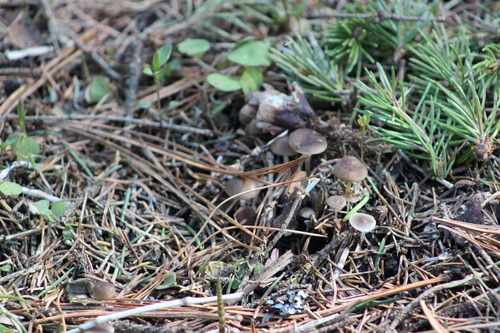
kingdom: Fungi
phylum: Basidiomycota
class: Agaricomycetes
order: Agaricales
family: Physalacriaceae
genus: Strobilurus
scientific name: Strobilurus esculentus
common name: Sprucecone cap
